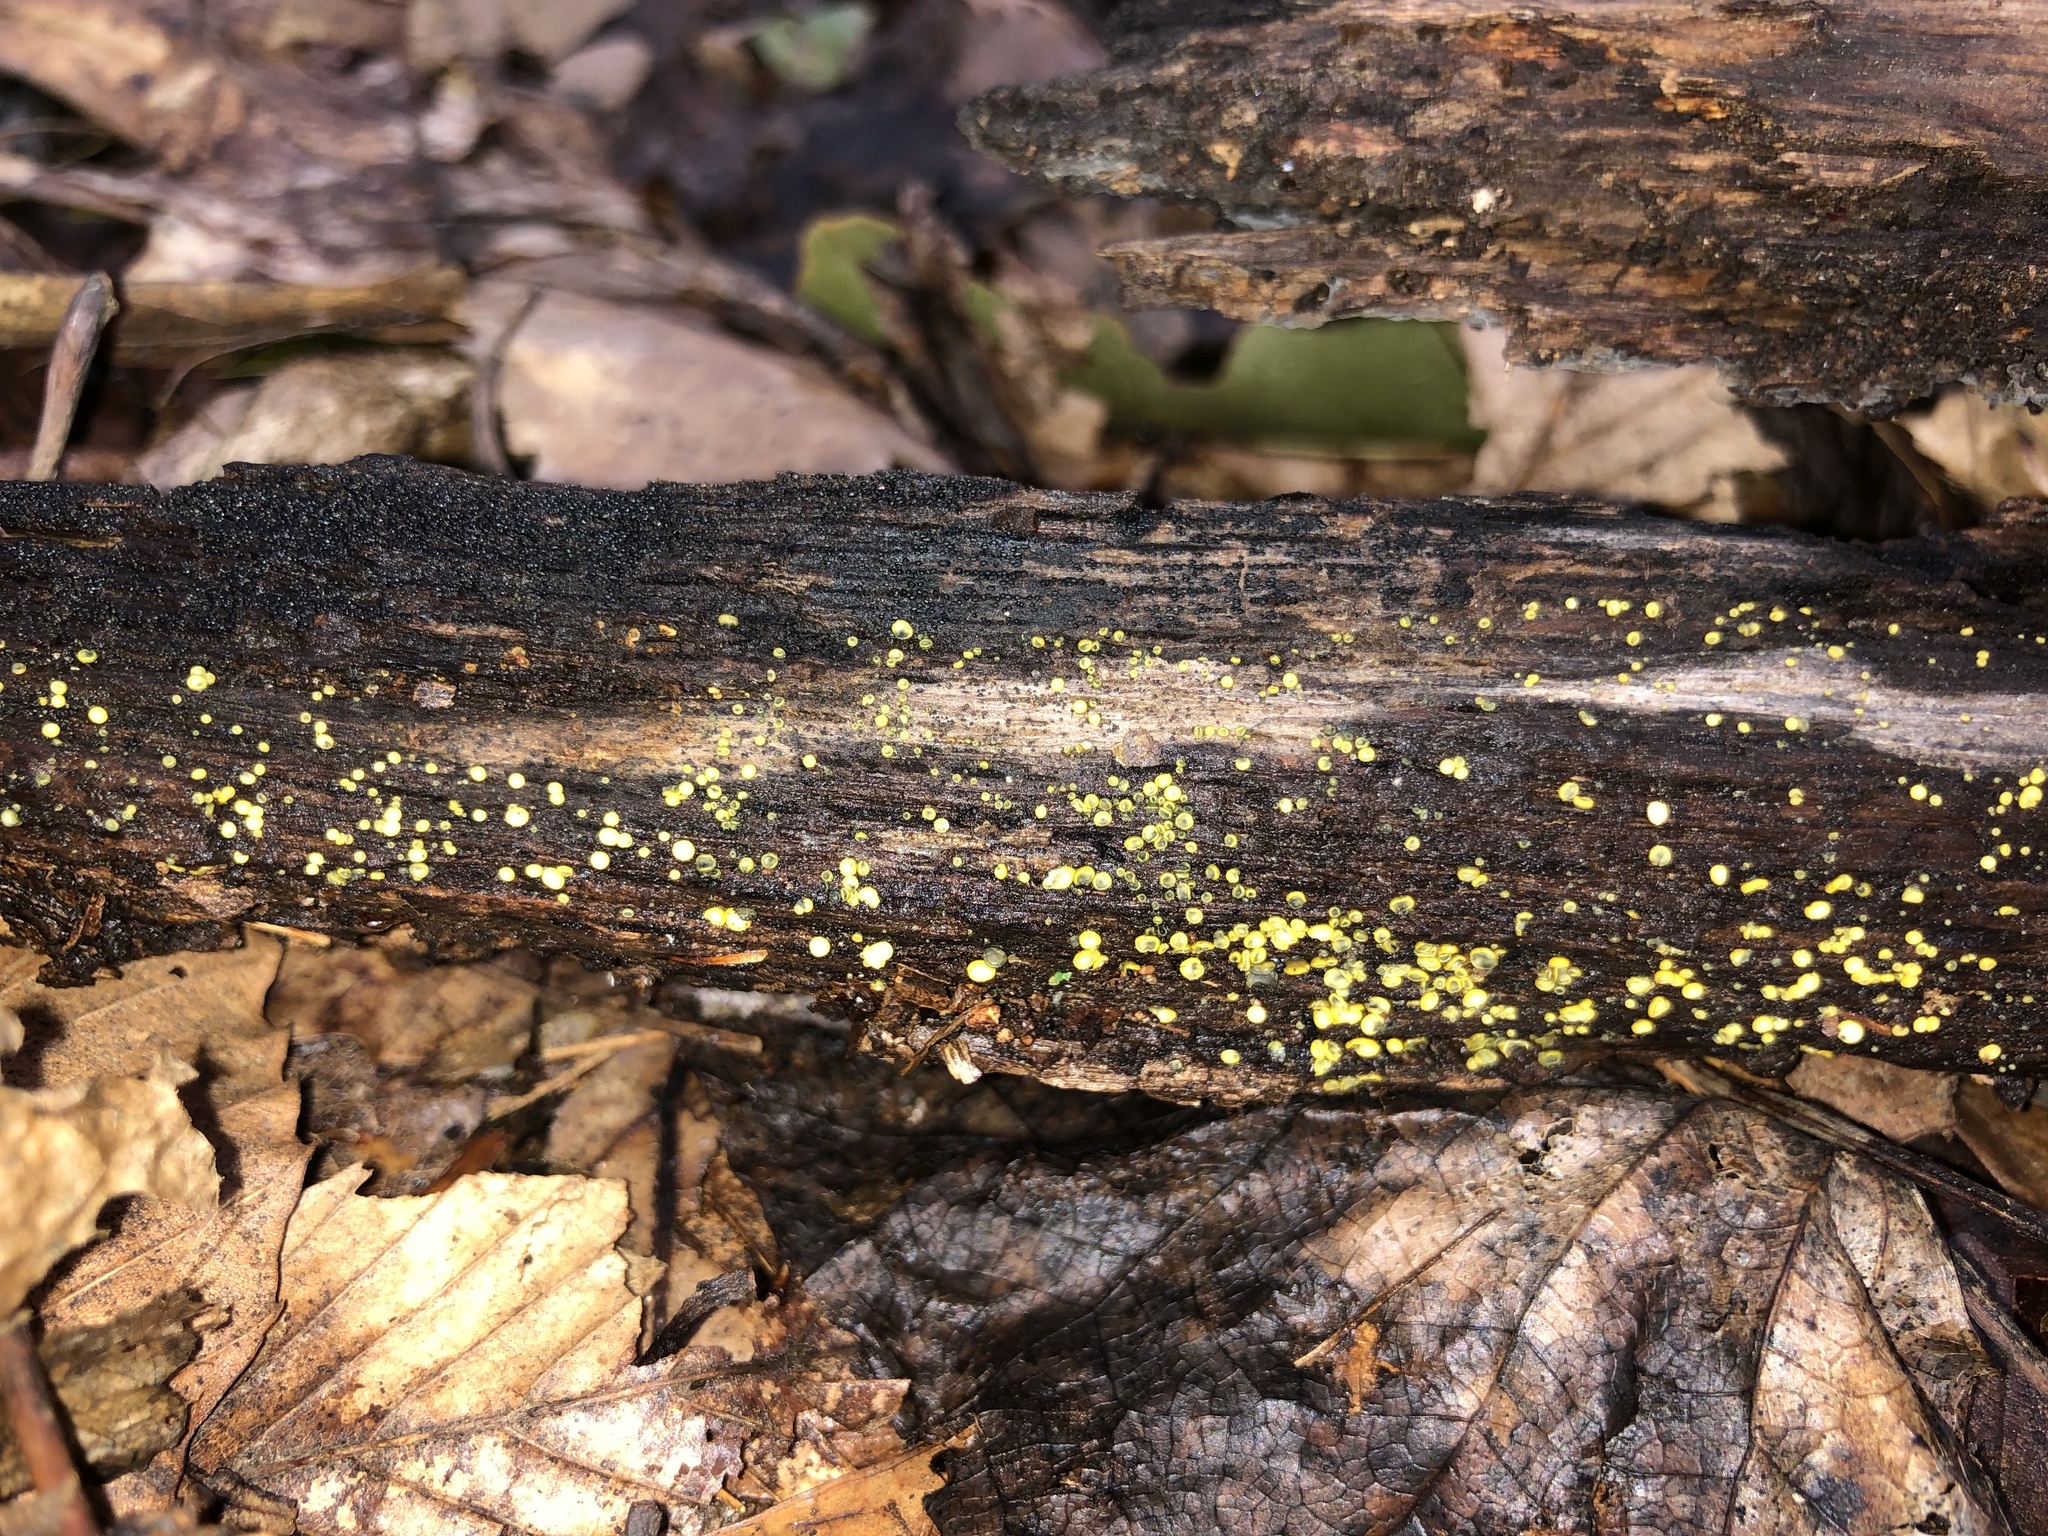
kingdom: Fungi
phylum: Ascomycota
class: Leotiomycetes
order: Helotiales
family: Chlorospleniaceae
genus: Chlorosplenium
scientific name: Chlorosplenium chlora
